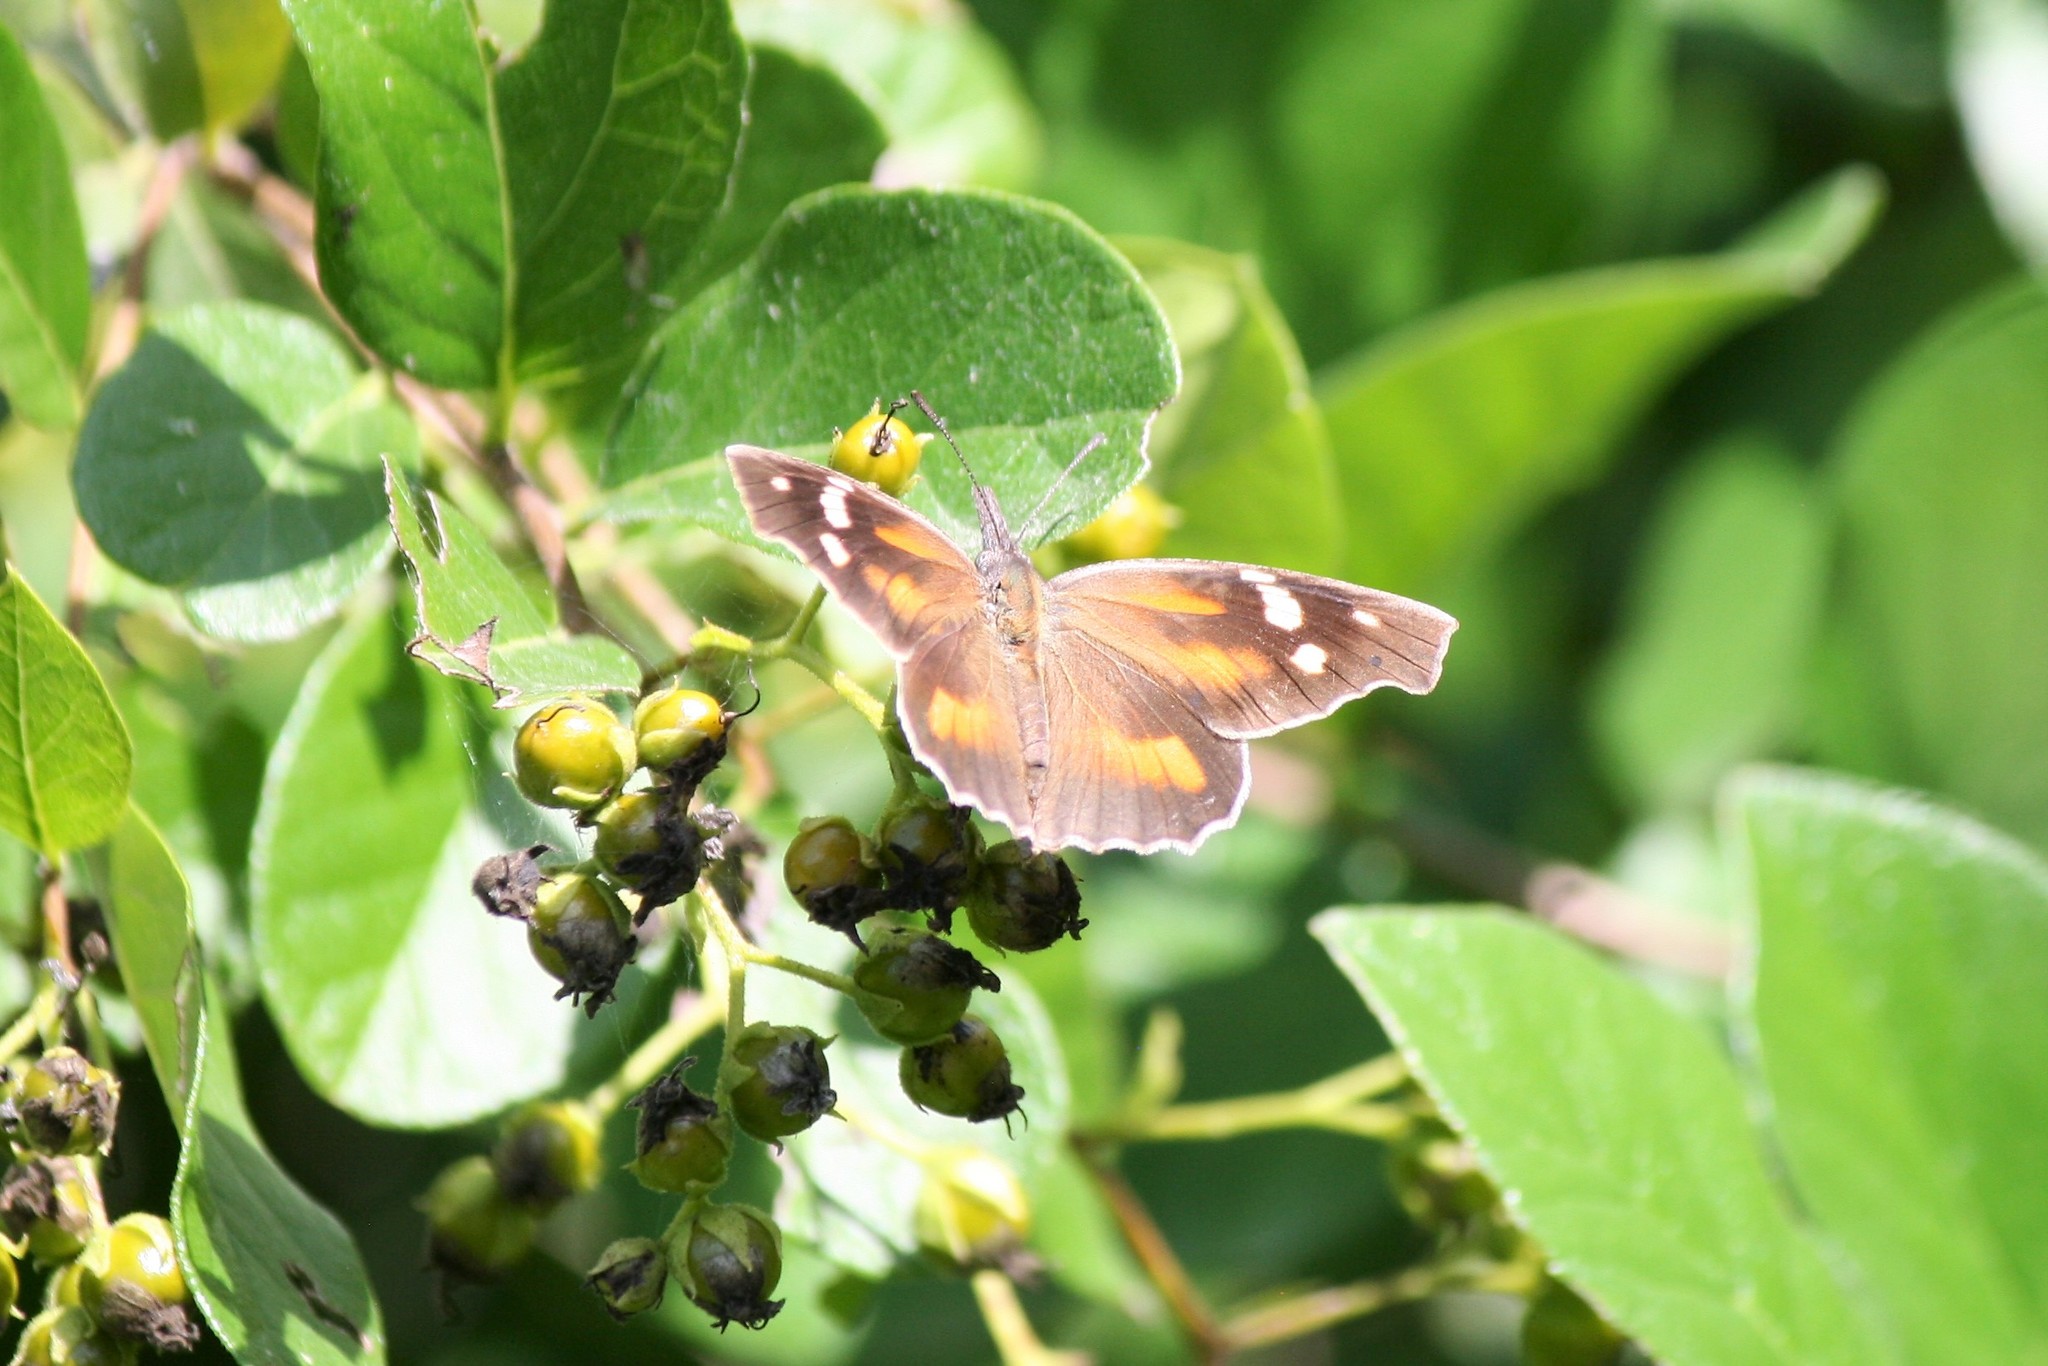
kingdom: Animalia
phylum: Arthropoda
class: Insecta
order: Lepidoptera
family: Nymphalidae
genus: Libytheana
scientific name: Libytheana carinenta
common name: American snout
